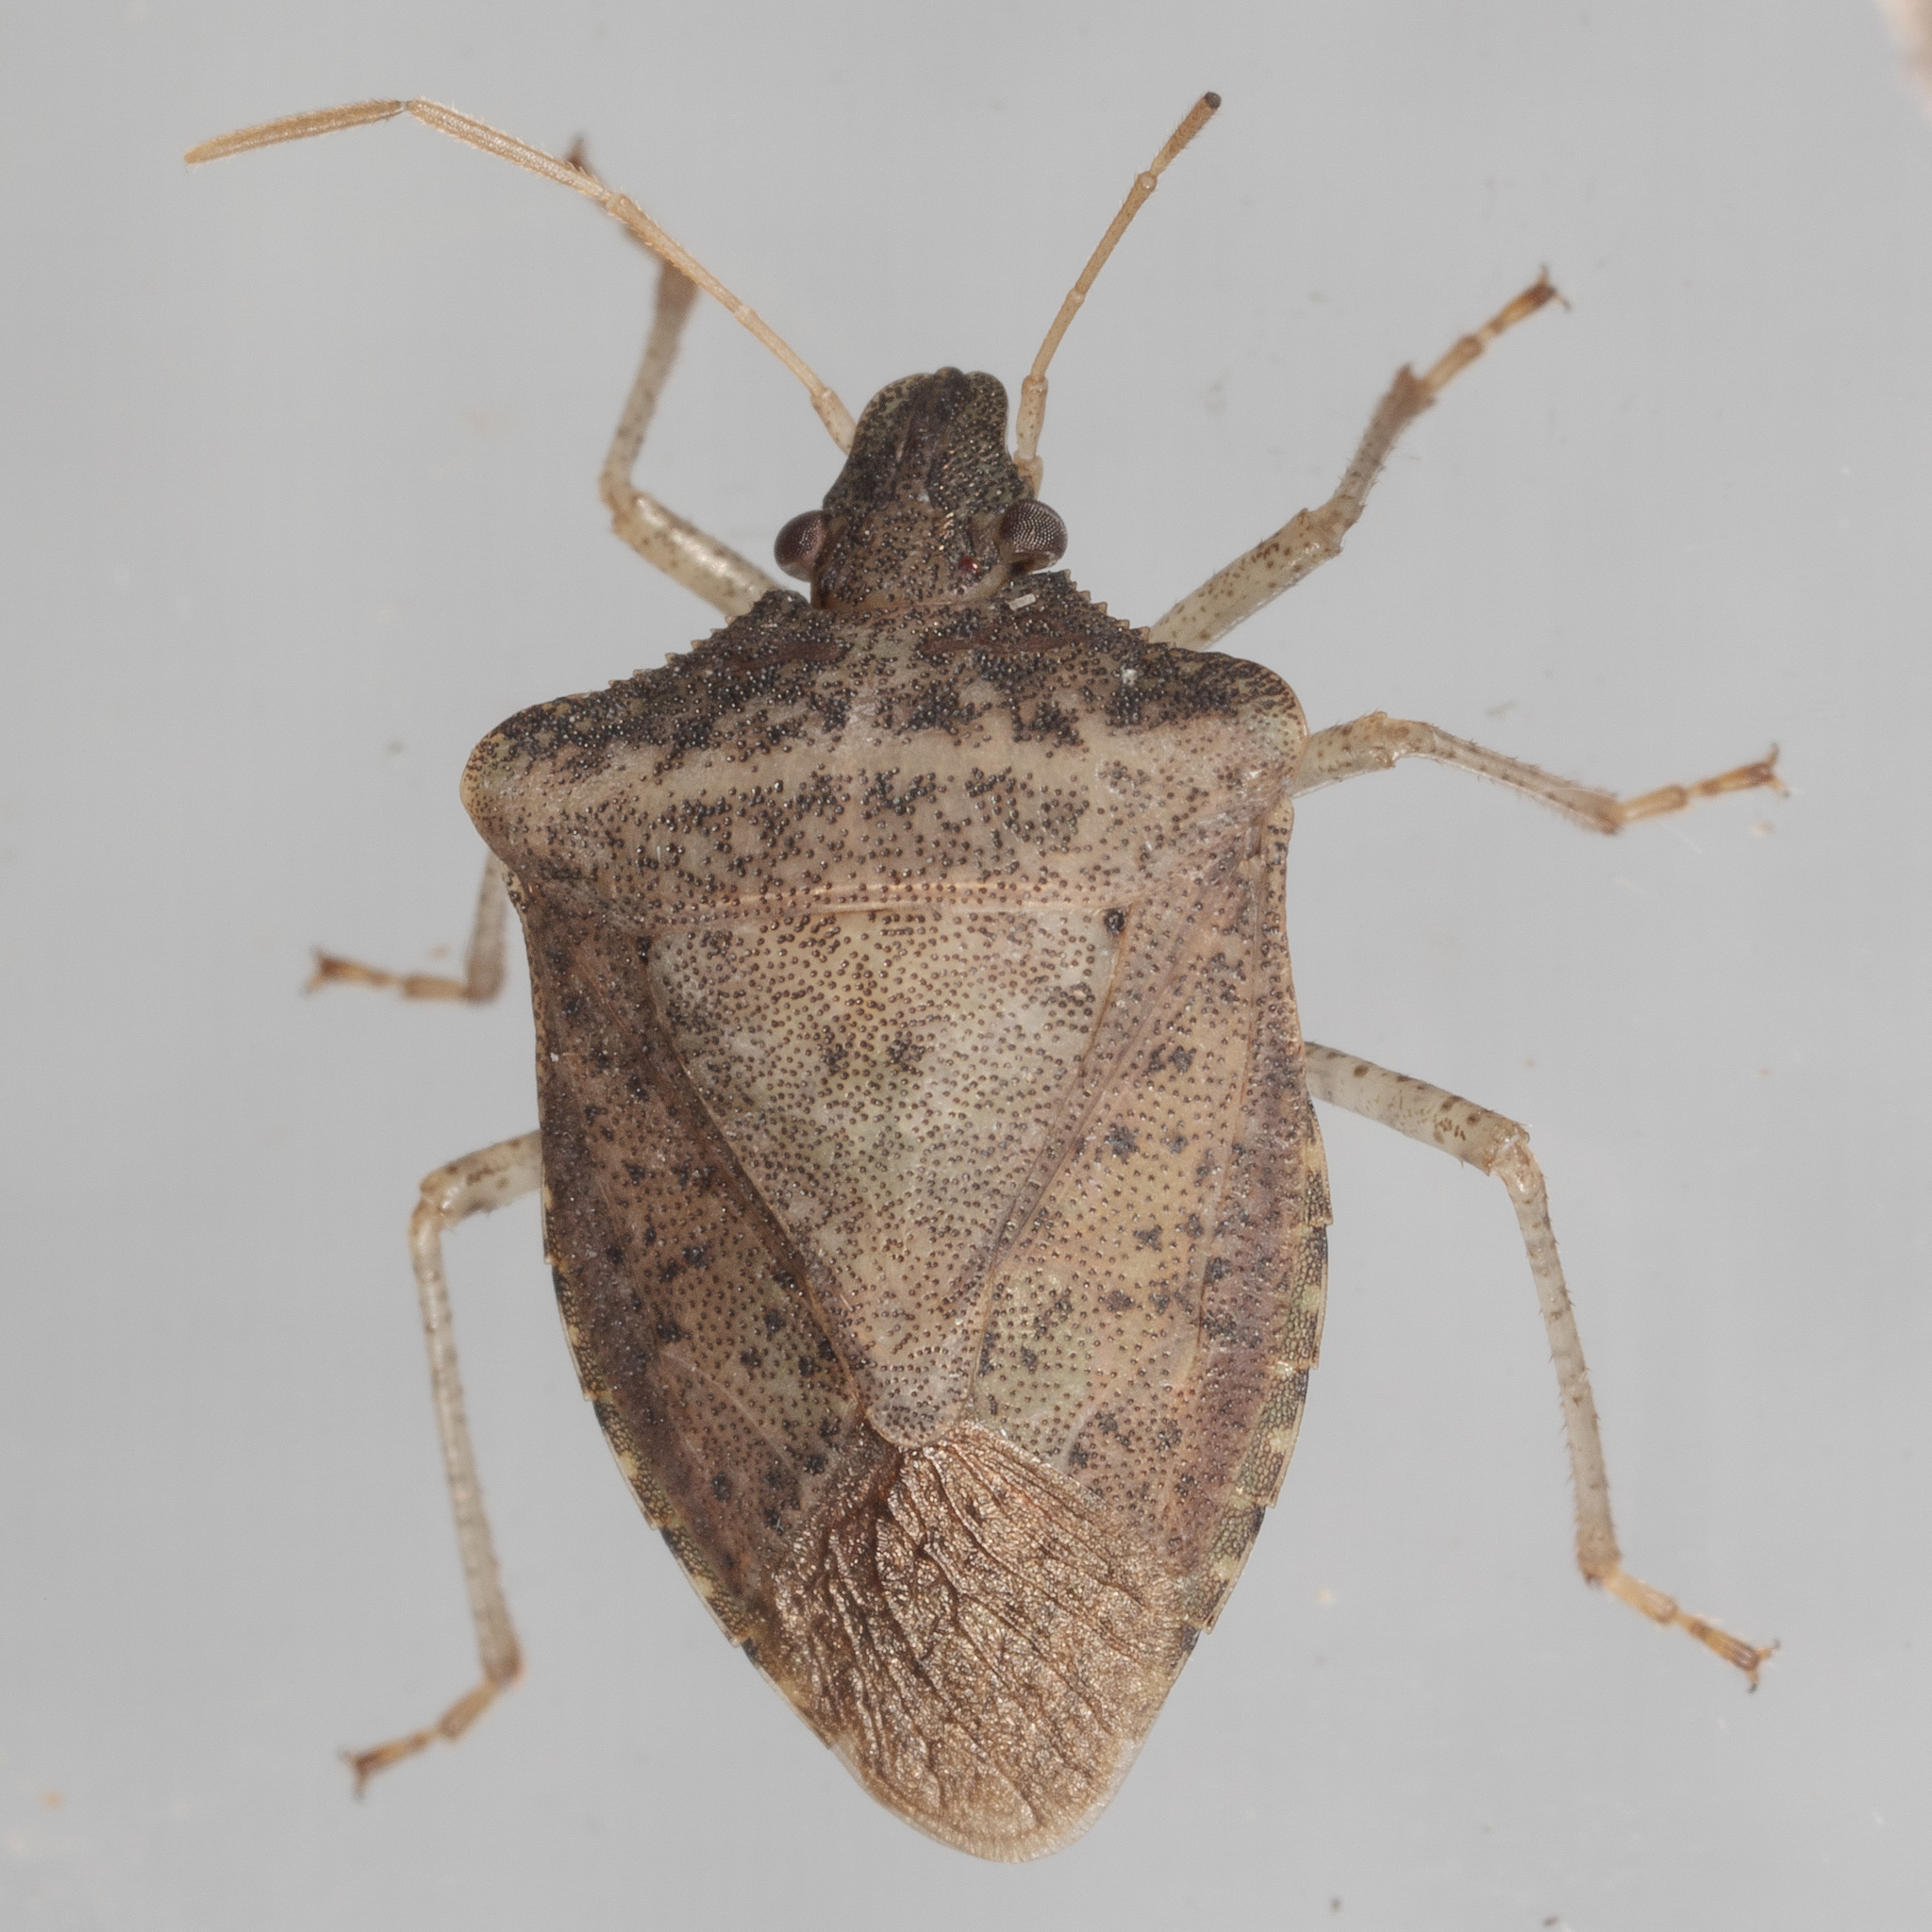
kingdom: Animalia
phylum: Arthropoda
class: Insecta
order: Hemiptera
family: Pentatomidae
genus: Euschistus
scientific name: Euschistus obscurus
